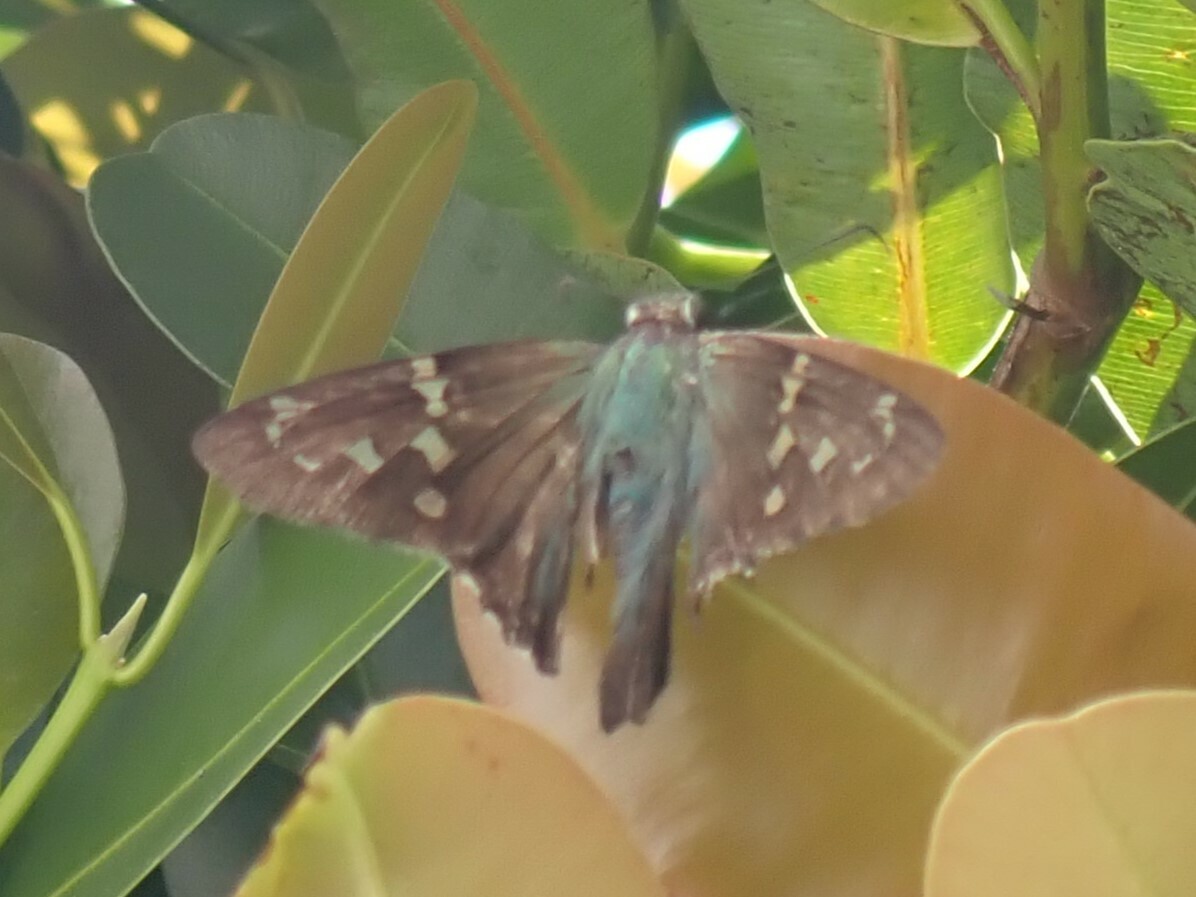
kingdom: Animalia
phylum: Arthropoda
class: Insecta
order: Lepidoptera
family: Hesperiidae
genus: Urbanus
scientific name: Urbanus proteus
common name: Long-tailed skipper
